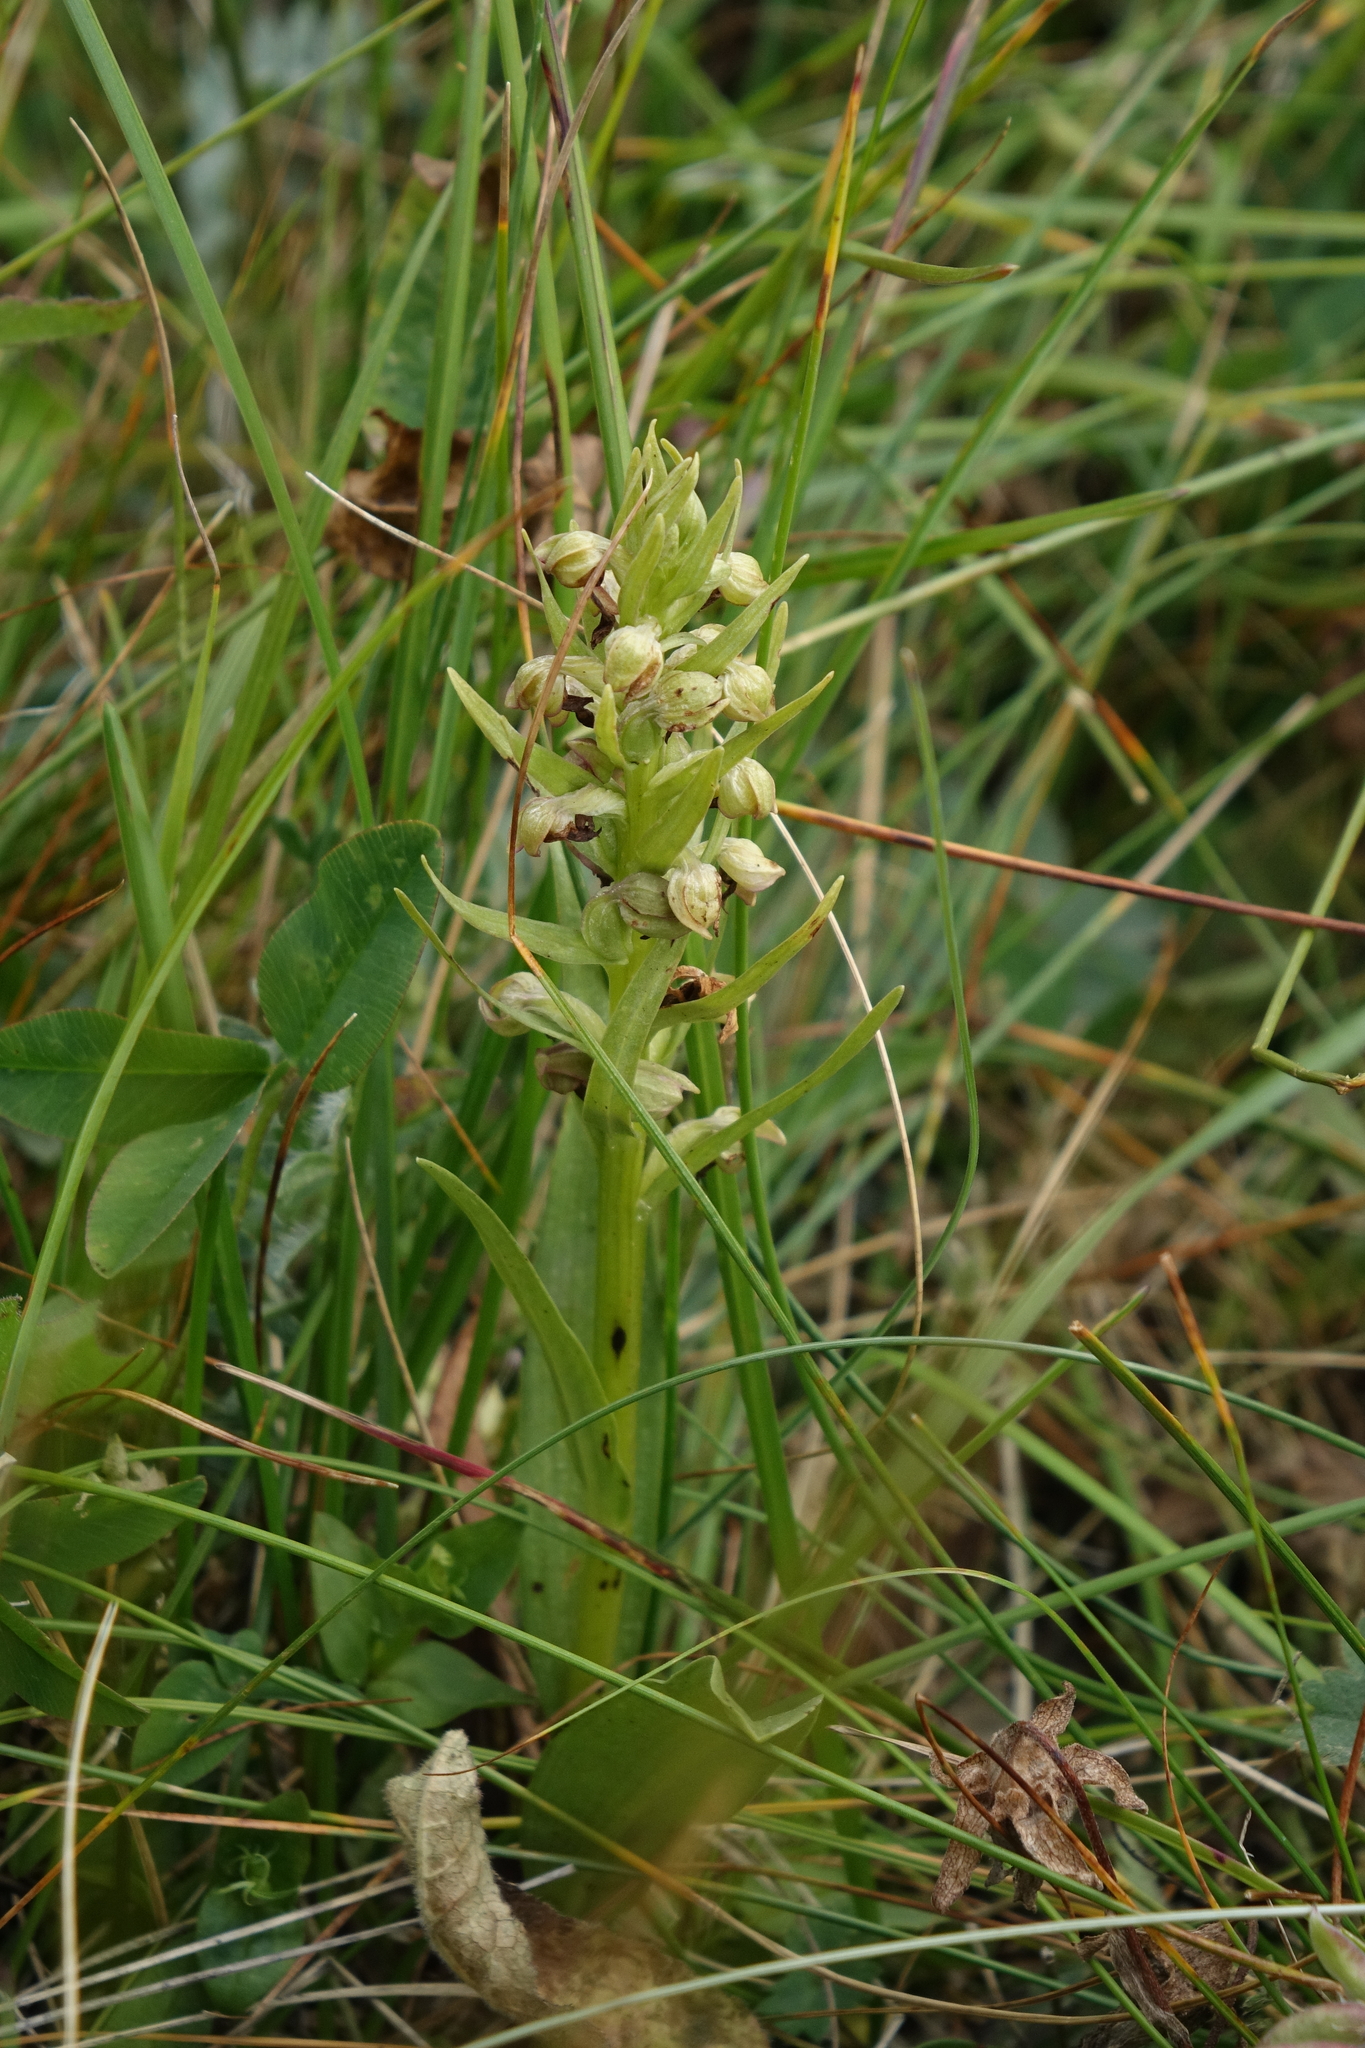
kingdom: Plantae
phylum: Tracheophyta
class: Liliopsida
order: Asparagales
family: Orchidaceae
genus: Dactylorhiza
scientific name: Dactylorhiza viridis
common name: Longbract frog orchid
